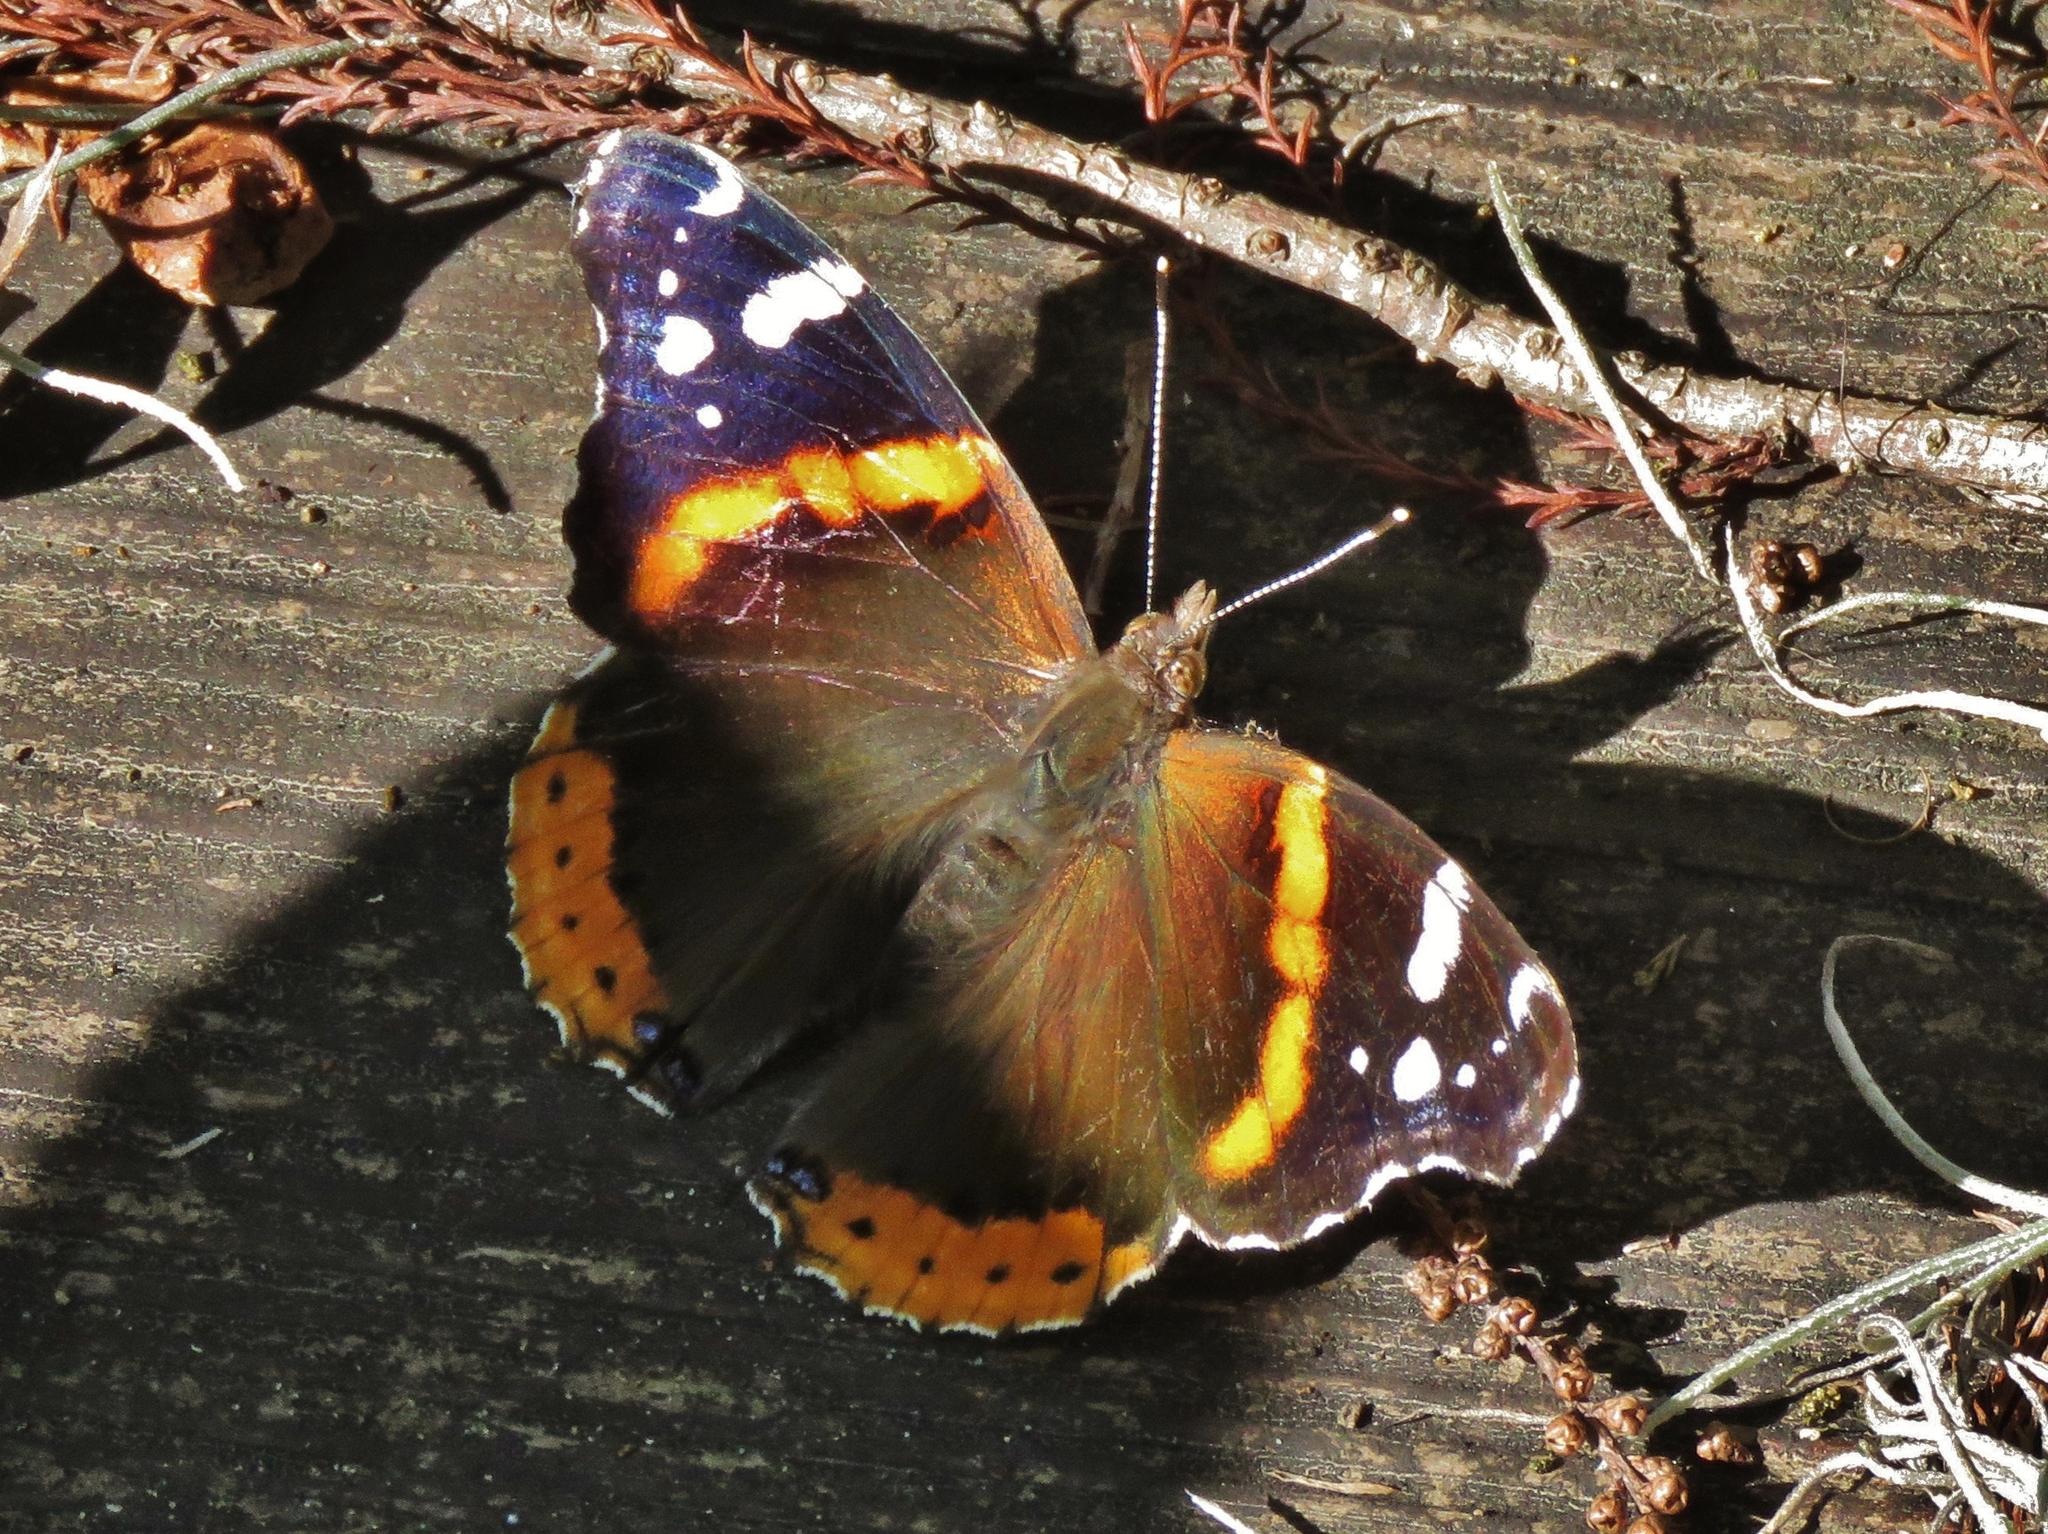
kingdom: Animalia
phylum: Arthropoda
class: Insecta
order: Lepidoptera
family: Nymphalidae
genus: Vanessa
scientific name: Vanessa atalanta
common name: Red admiral
